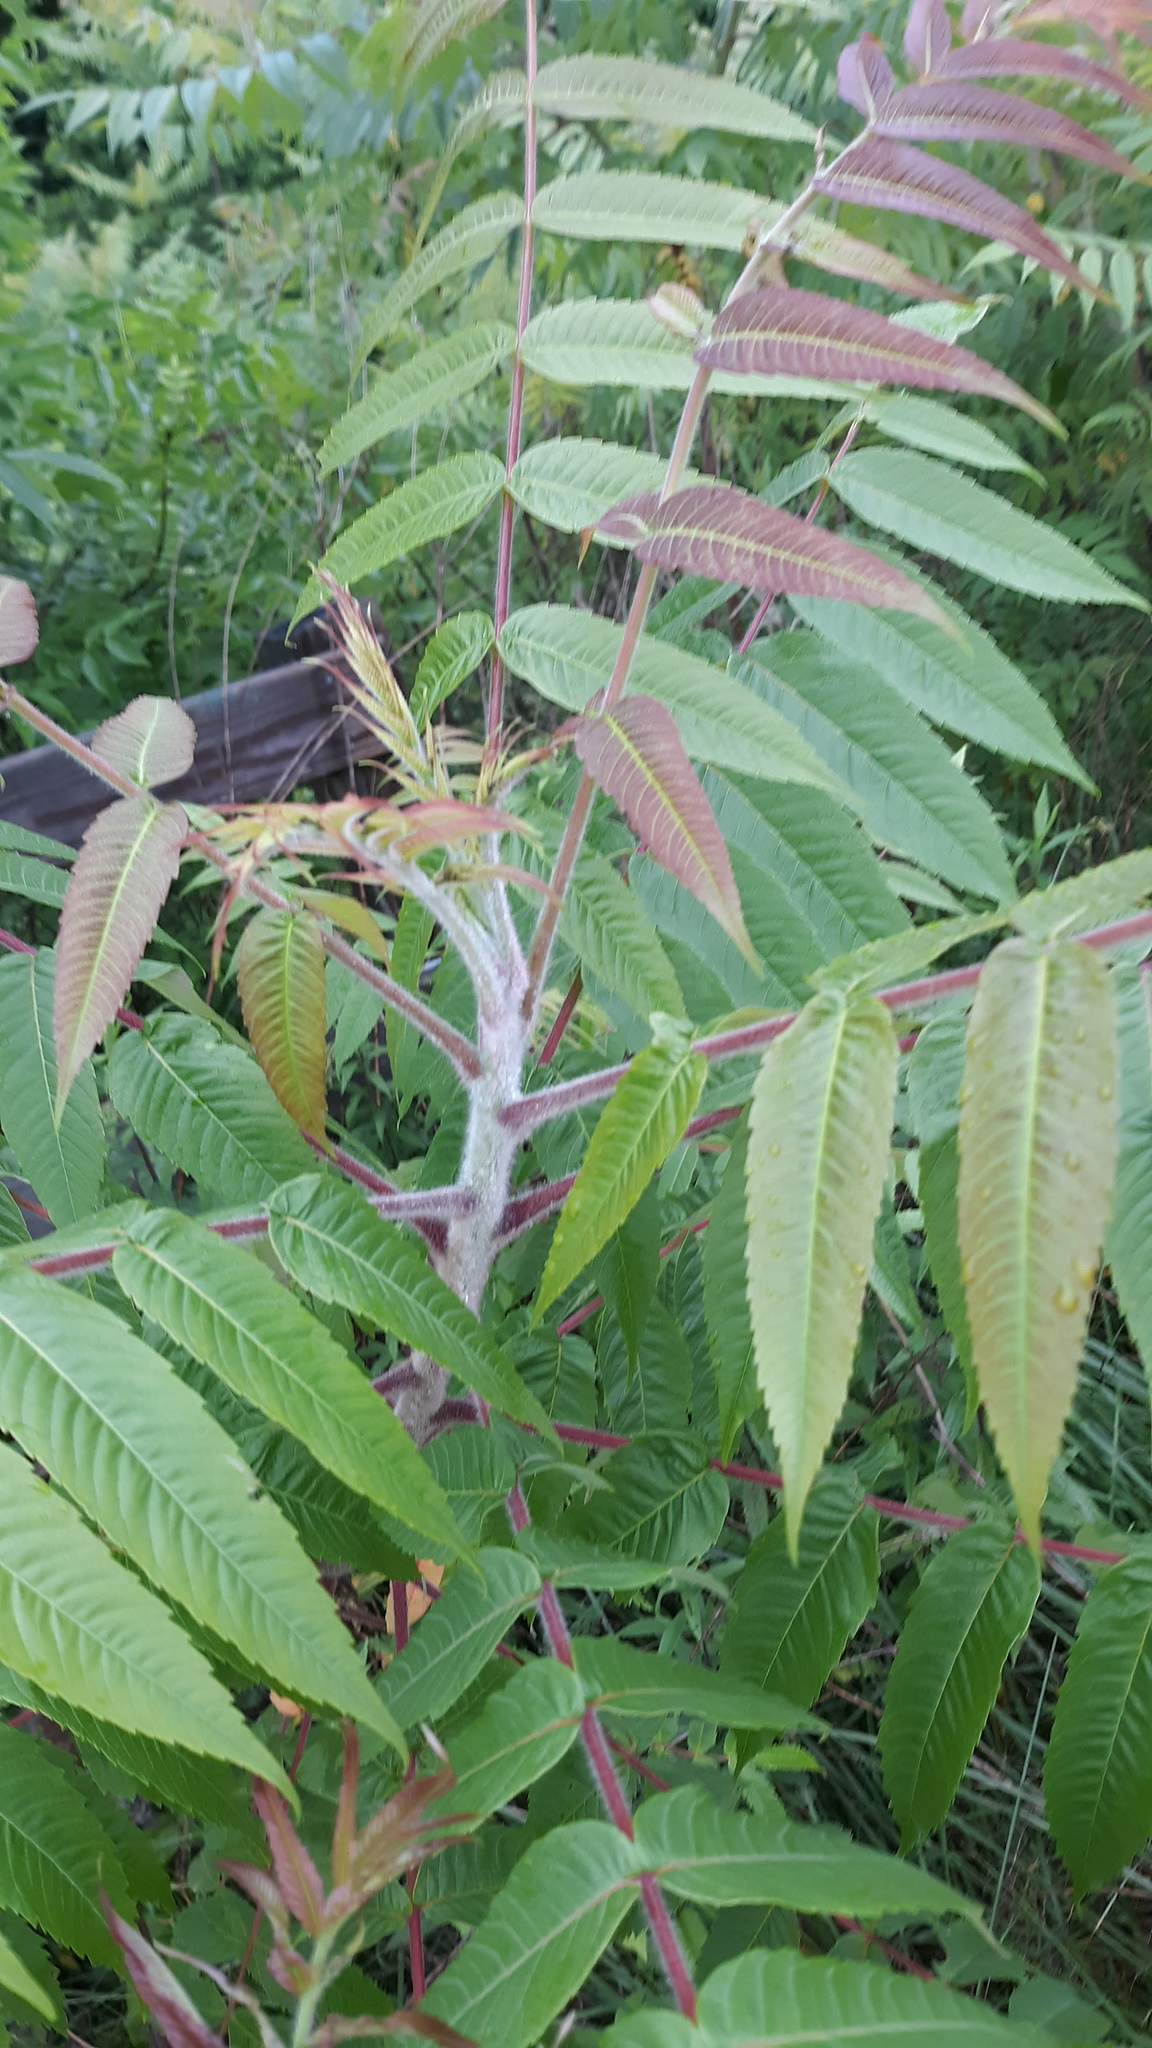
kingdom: Plantae
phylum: Tracheophyta
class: Magnoliopsida
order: Sapindales
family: Anacardiaceae
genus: Rhus
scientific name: Rhus typhina
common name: Staghorn sumac
